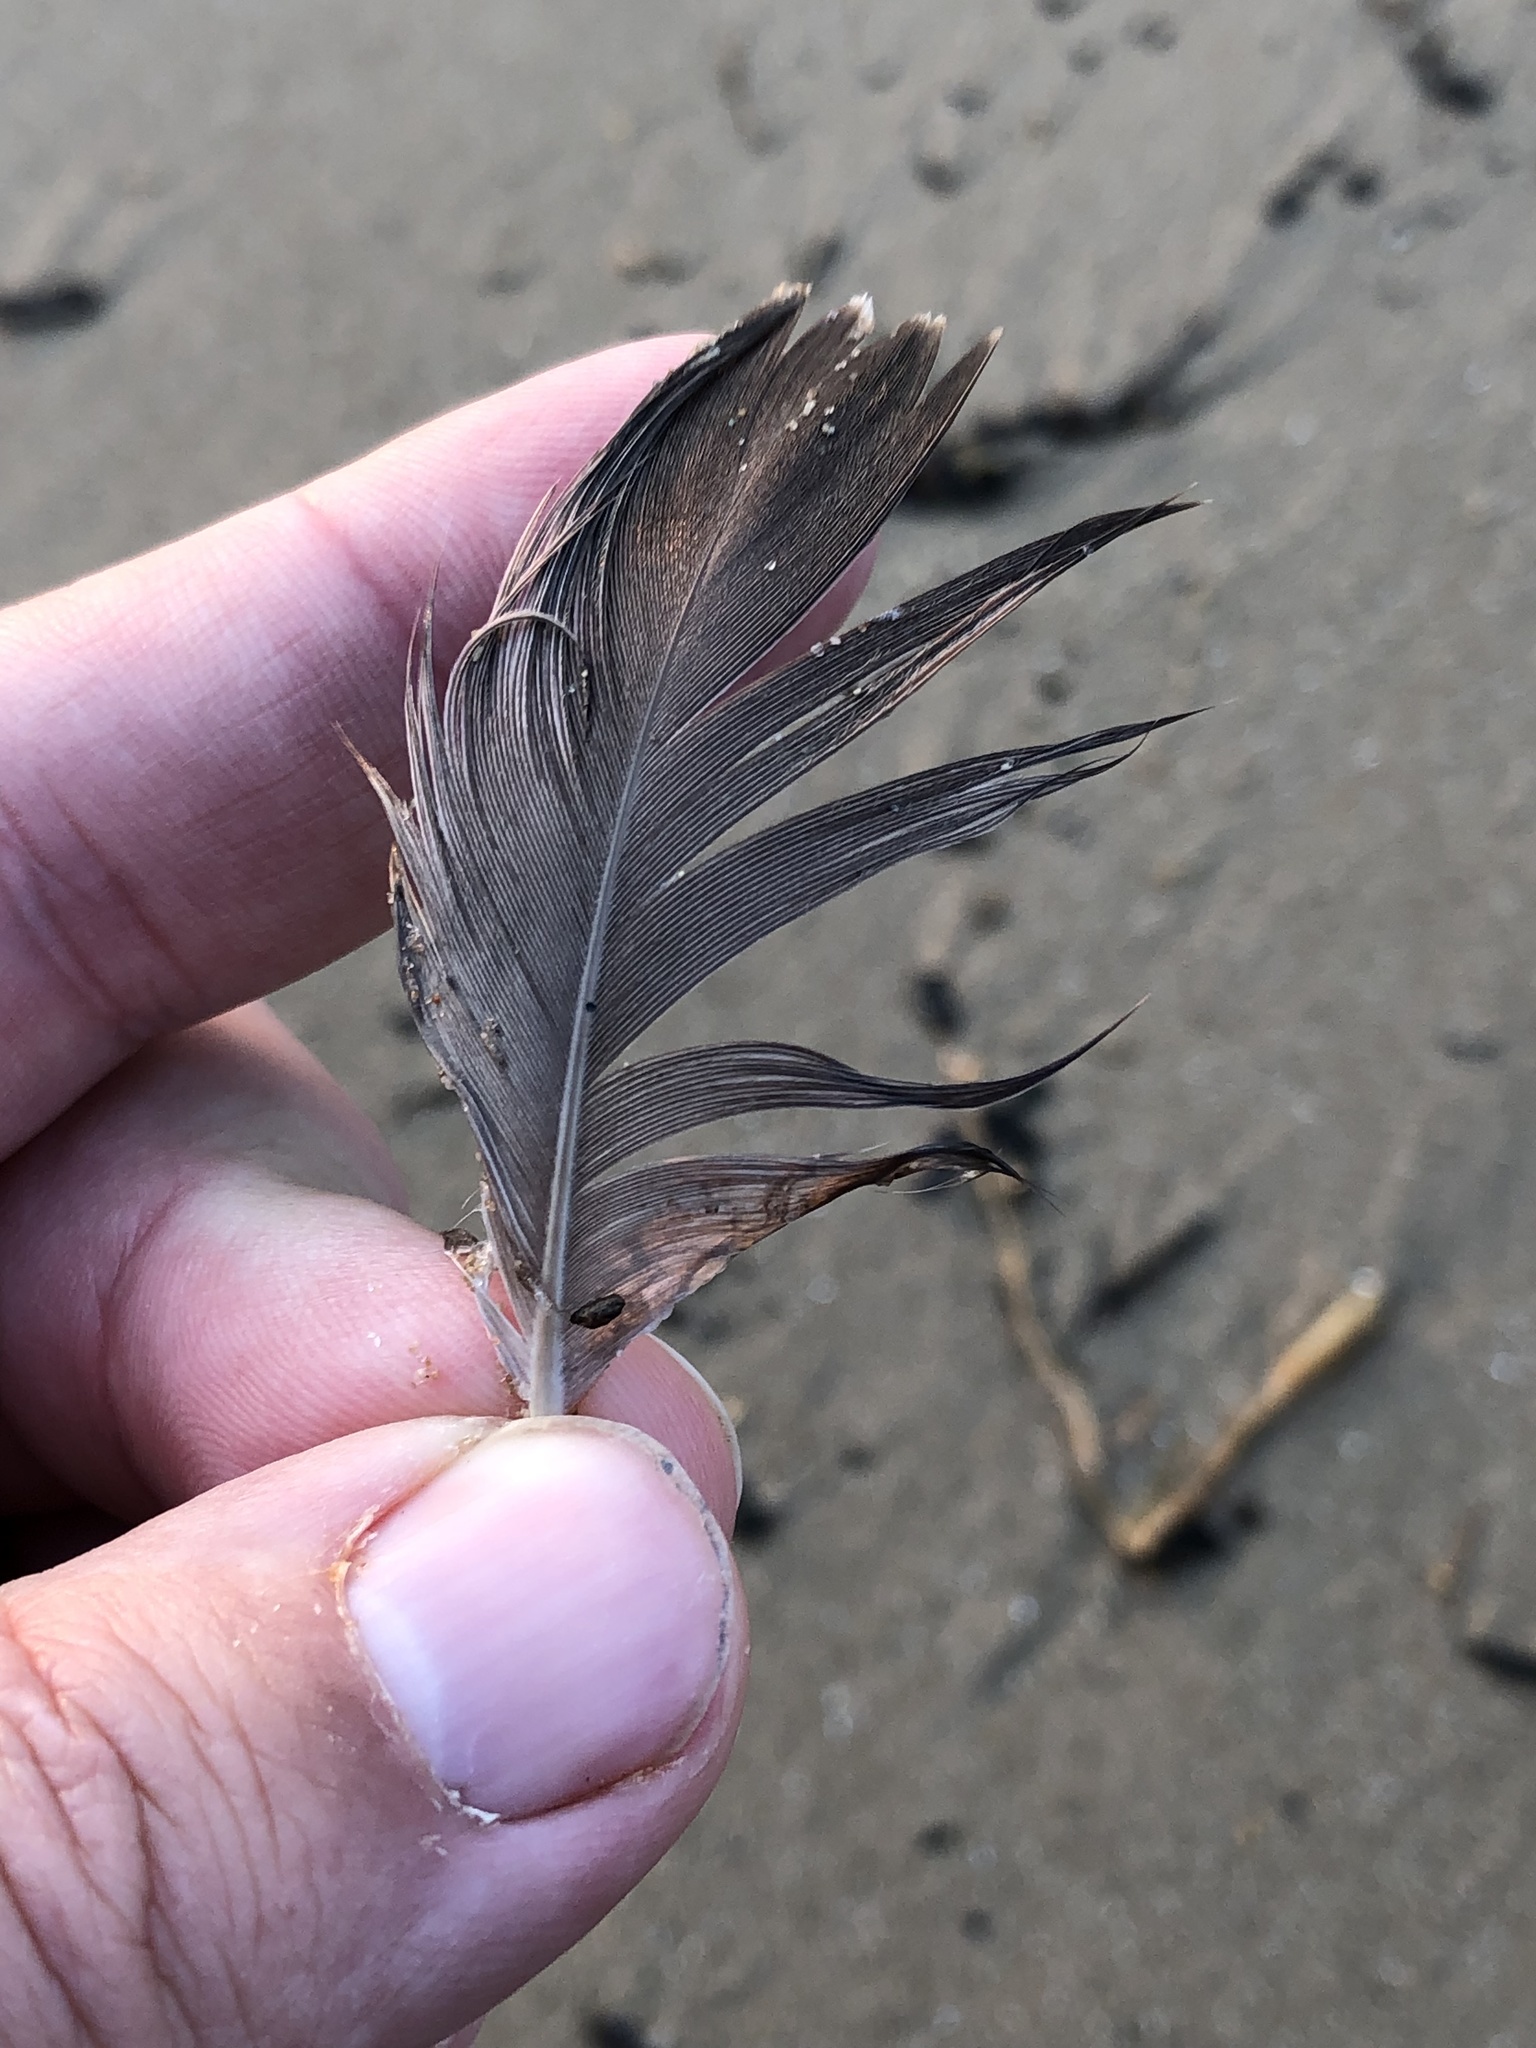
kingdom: Animalia
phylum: Chordata
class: Aves
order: Anseriformes
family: Anatidae
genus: Branta
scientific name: Branta canadensis
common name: Canada goose
